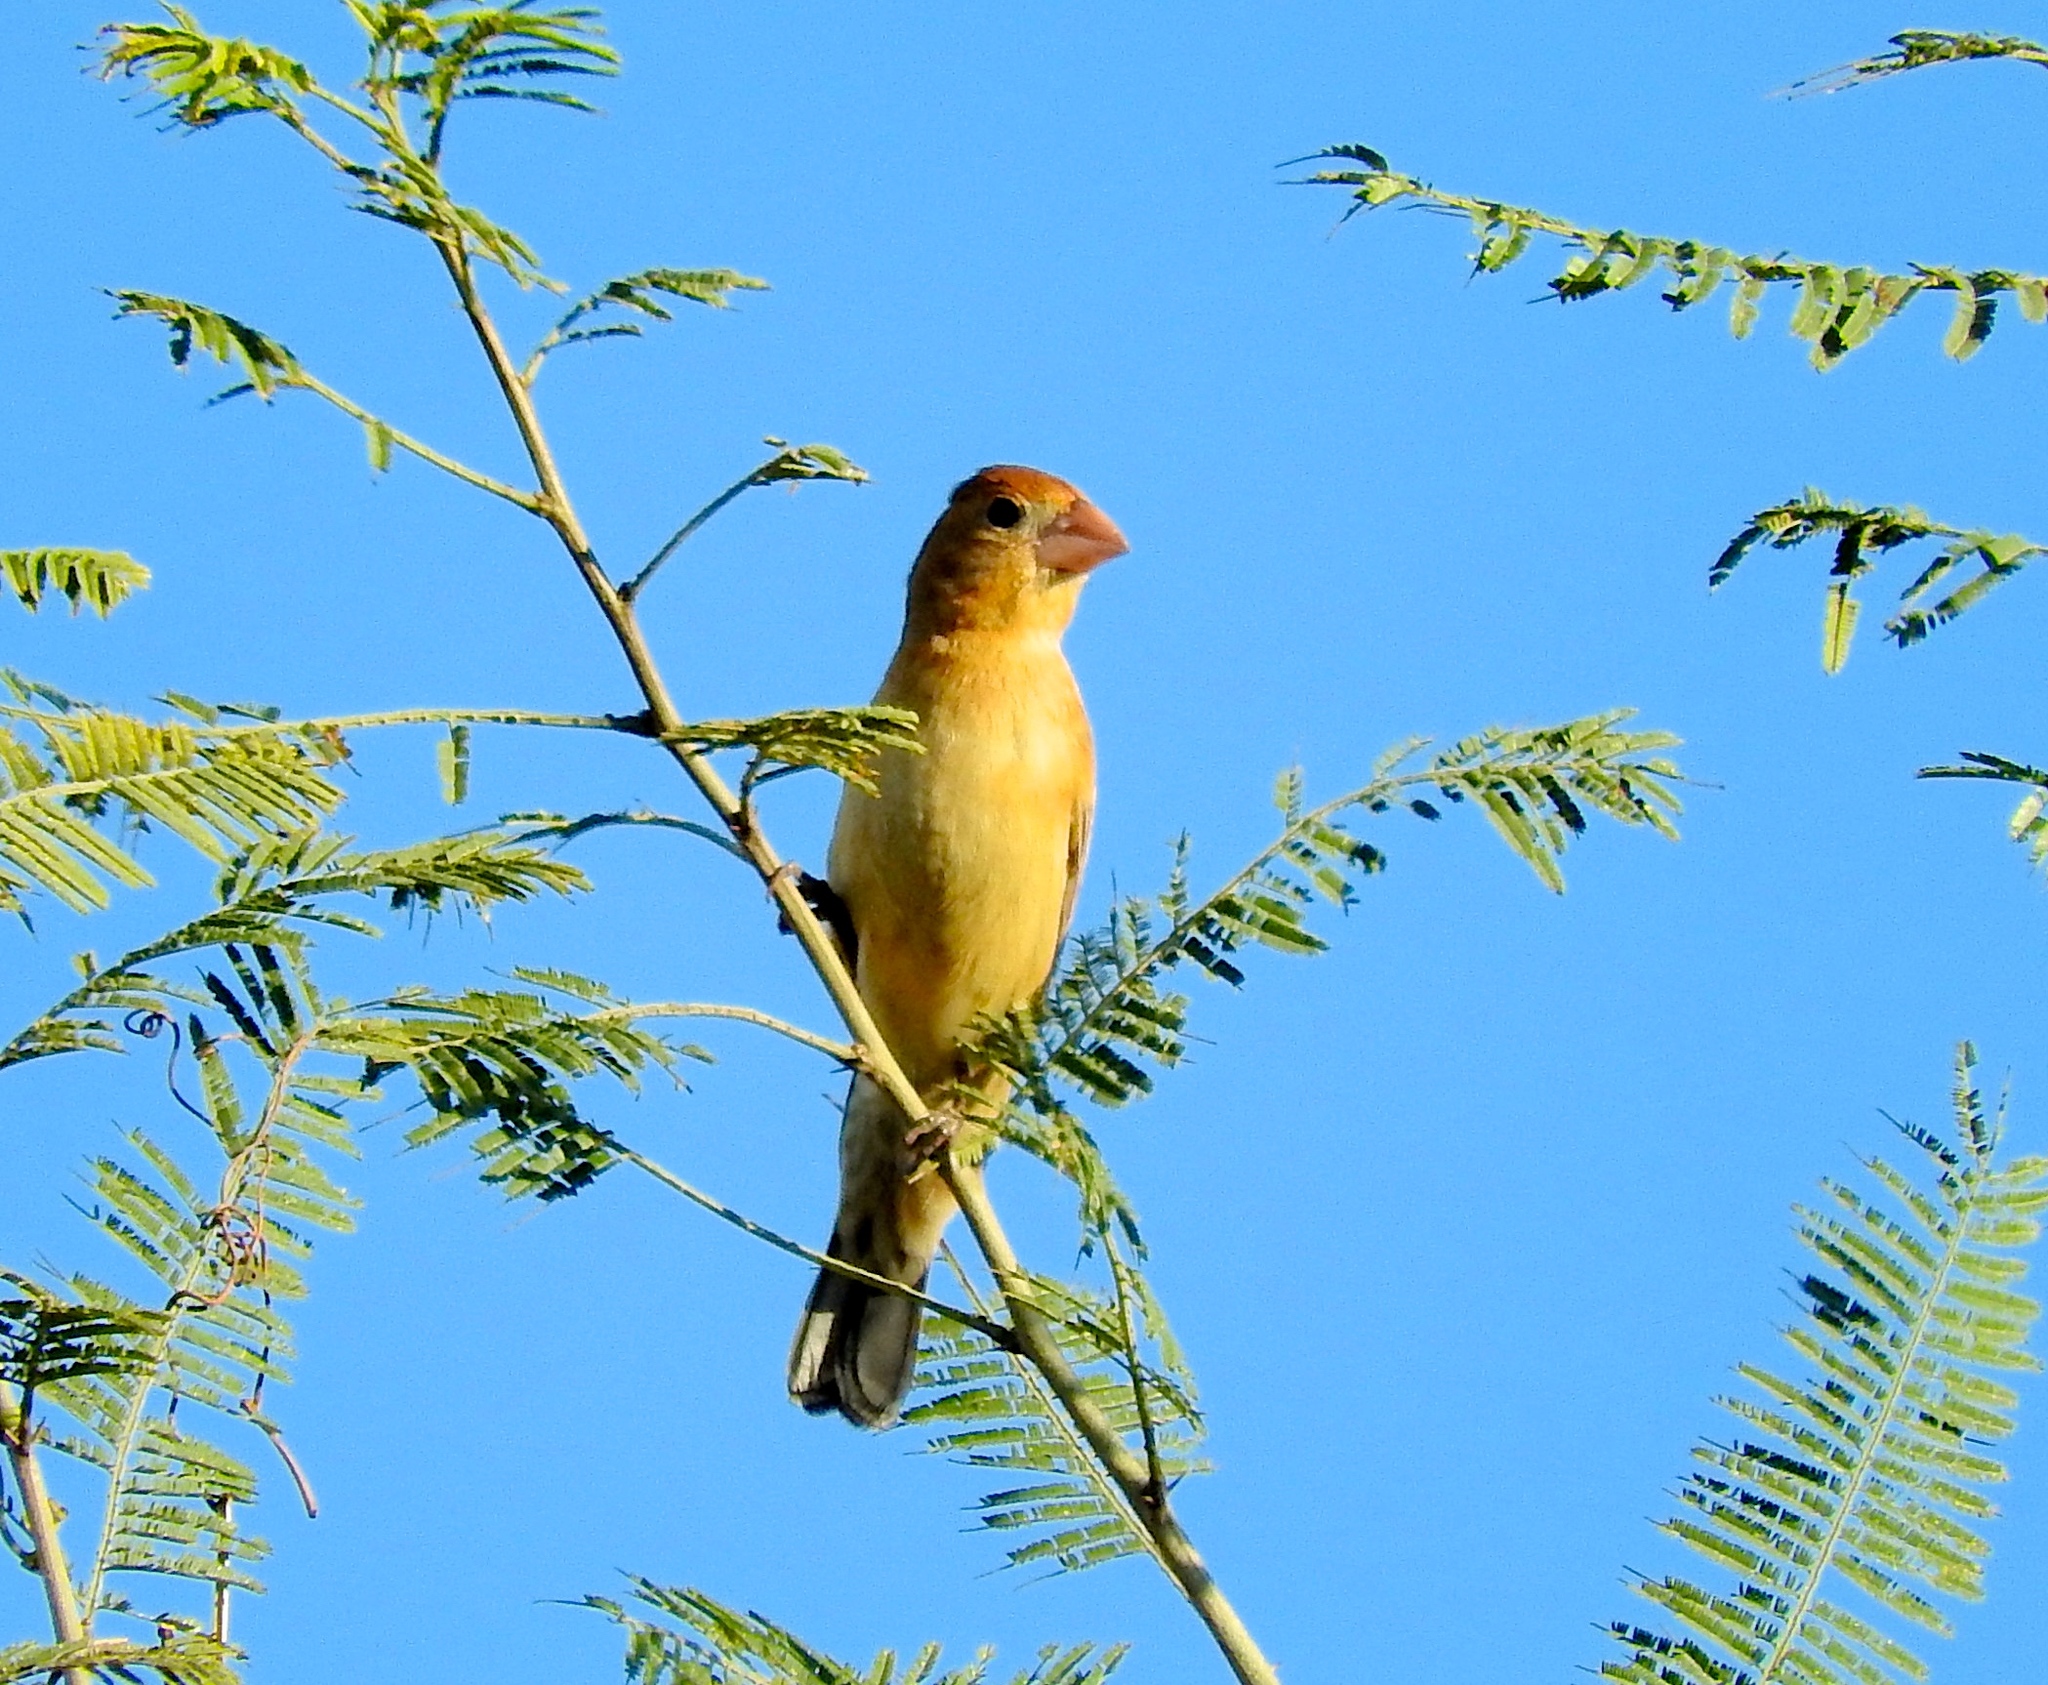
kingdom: Animalia
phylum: Chordata
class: Aves
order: Passeriformes
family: Cardinalidae
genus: Passerina
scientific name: Passerina caerulea
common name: Blue grosbeak
